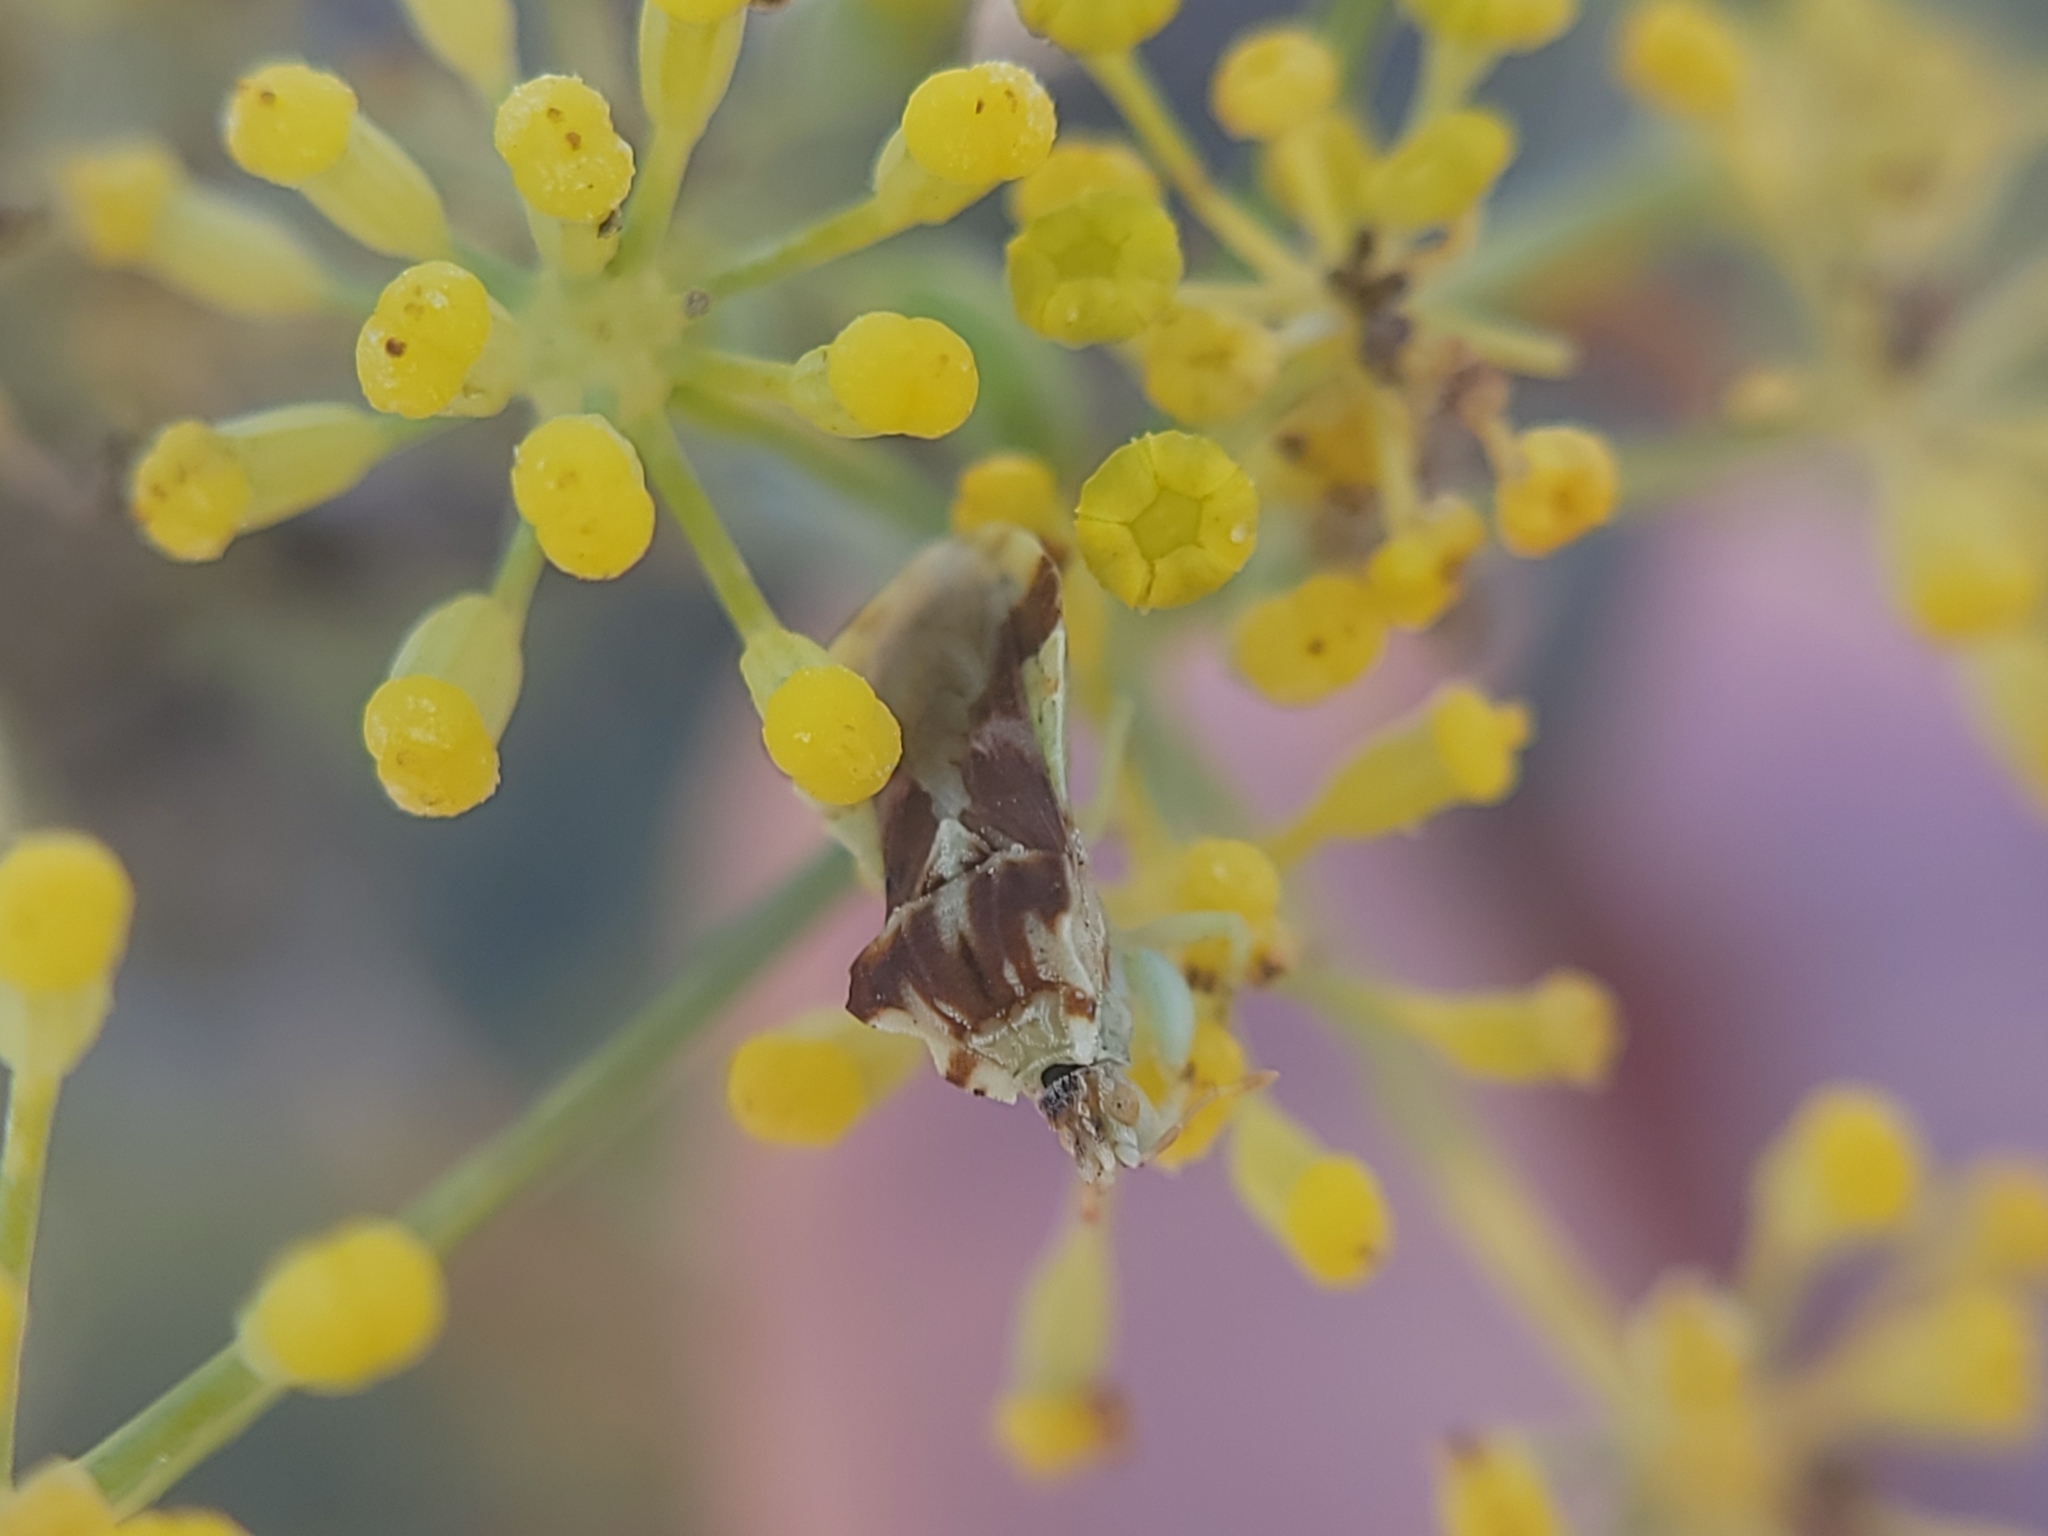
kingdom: Animalia
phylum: Arthropoda
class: Insecta
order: Hemiptera
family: Reduviidae
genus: Phymata
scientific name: Phymata pacifica
